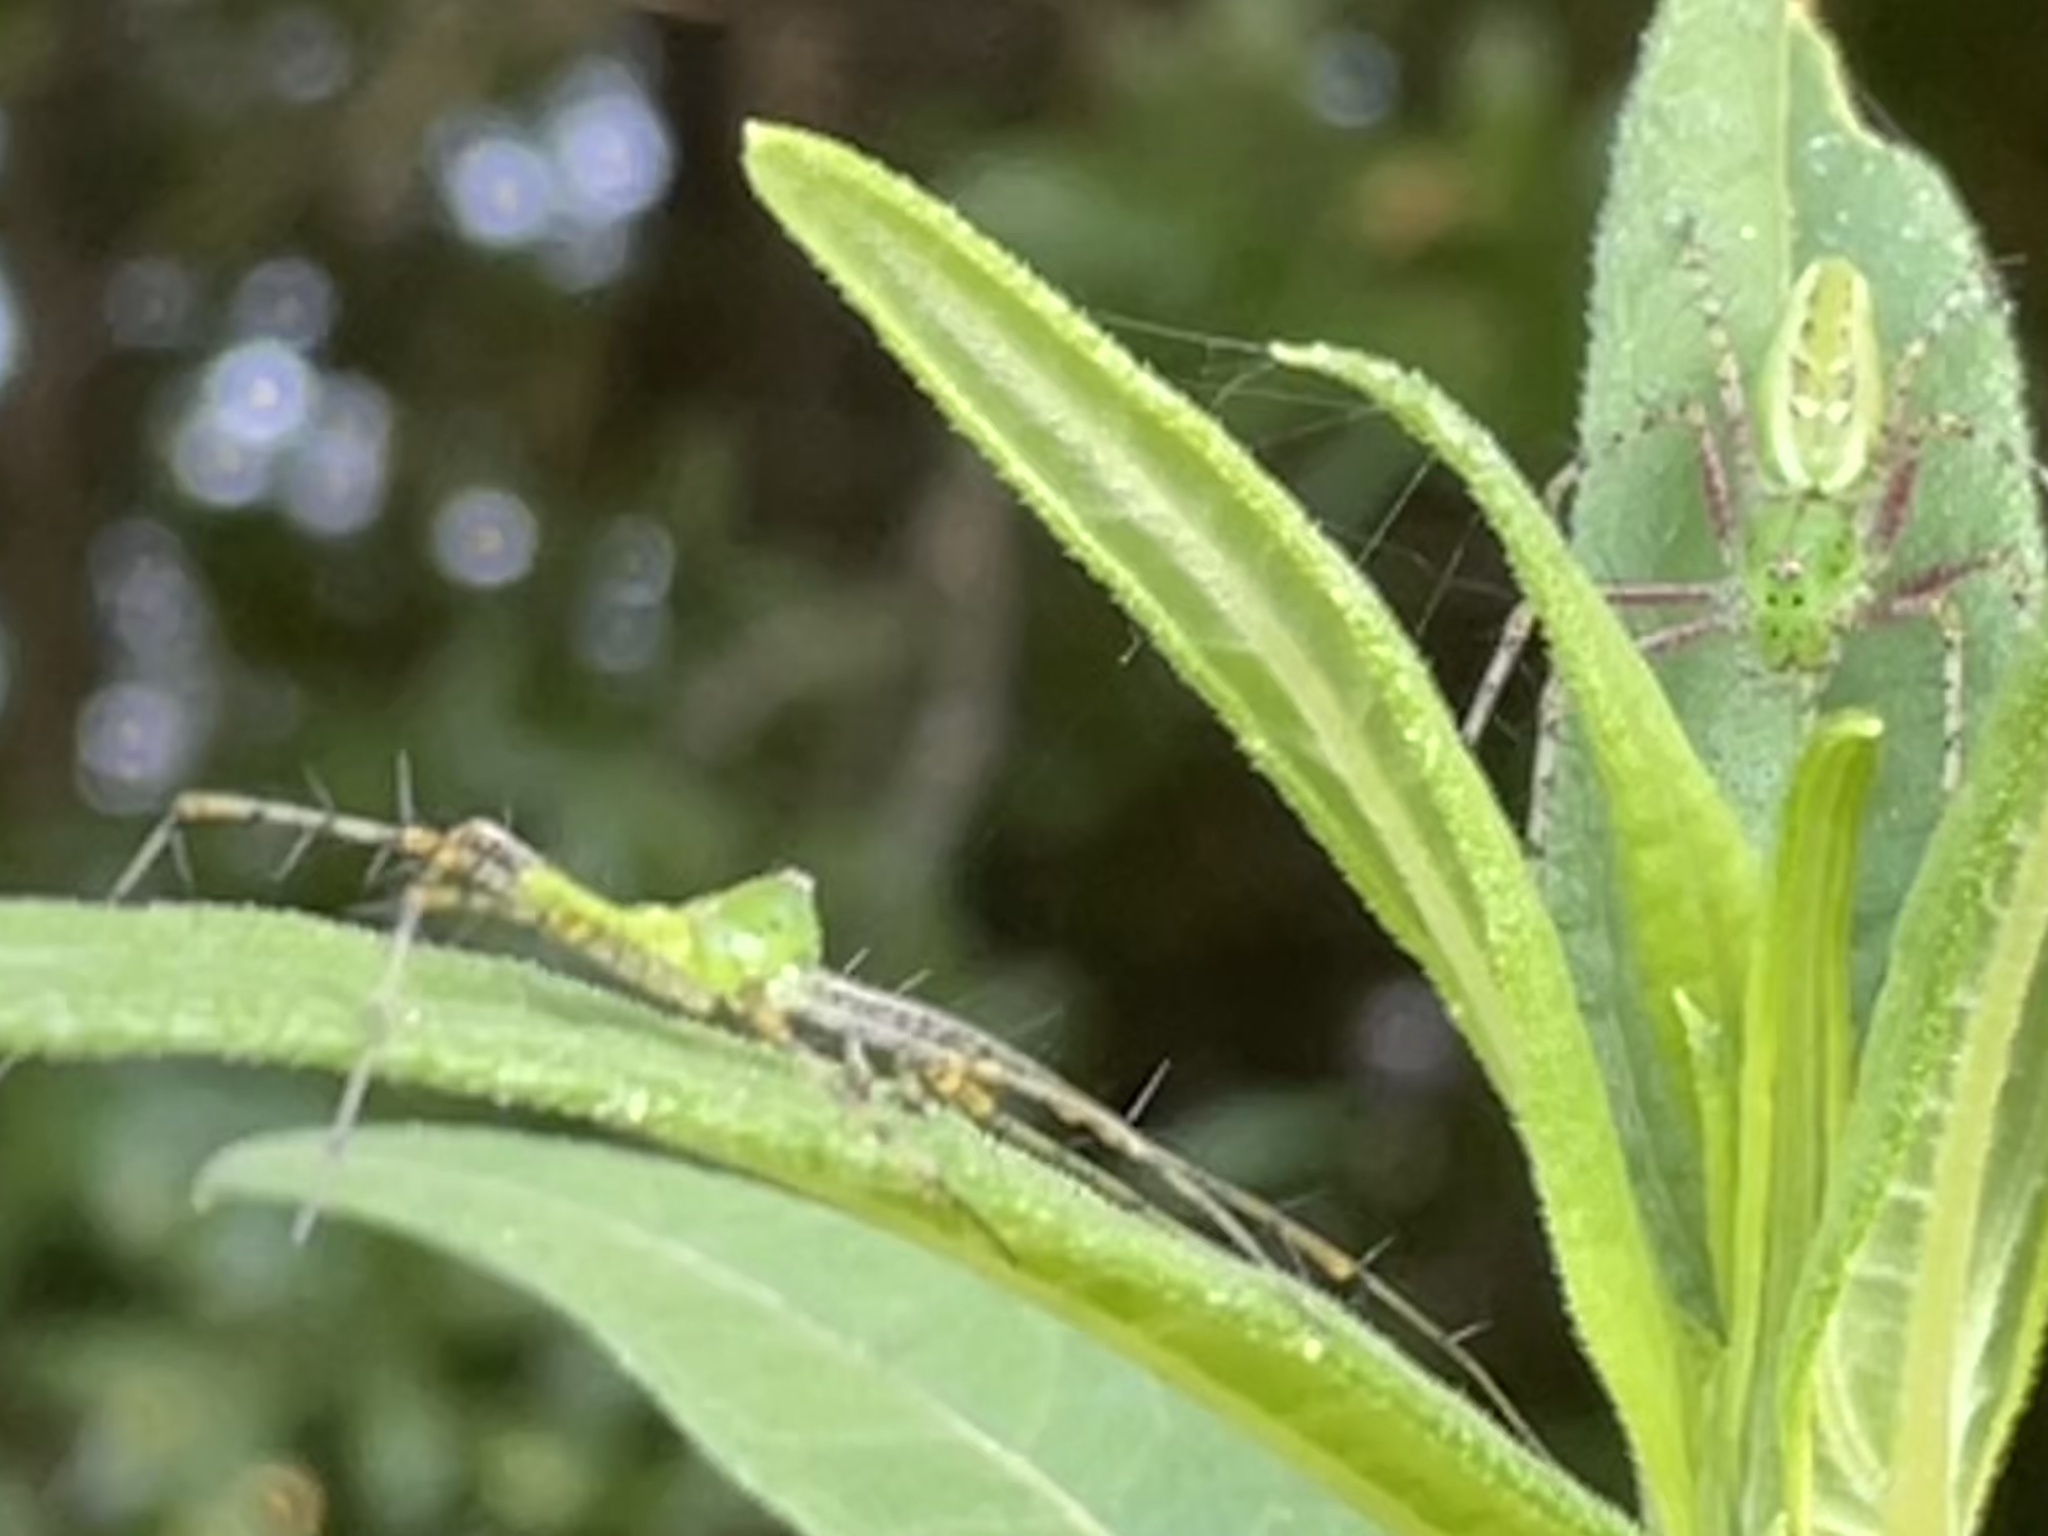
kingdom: Animalia
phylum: Arthropoda
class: Arachnida
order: Araneae
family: Oxyopidae
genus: Peucetia
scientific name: Peucetia viridans
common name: Lynx spiders
